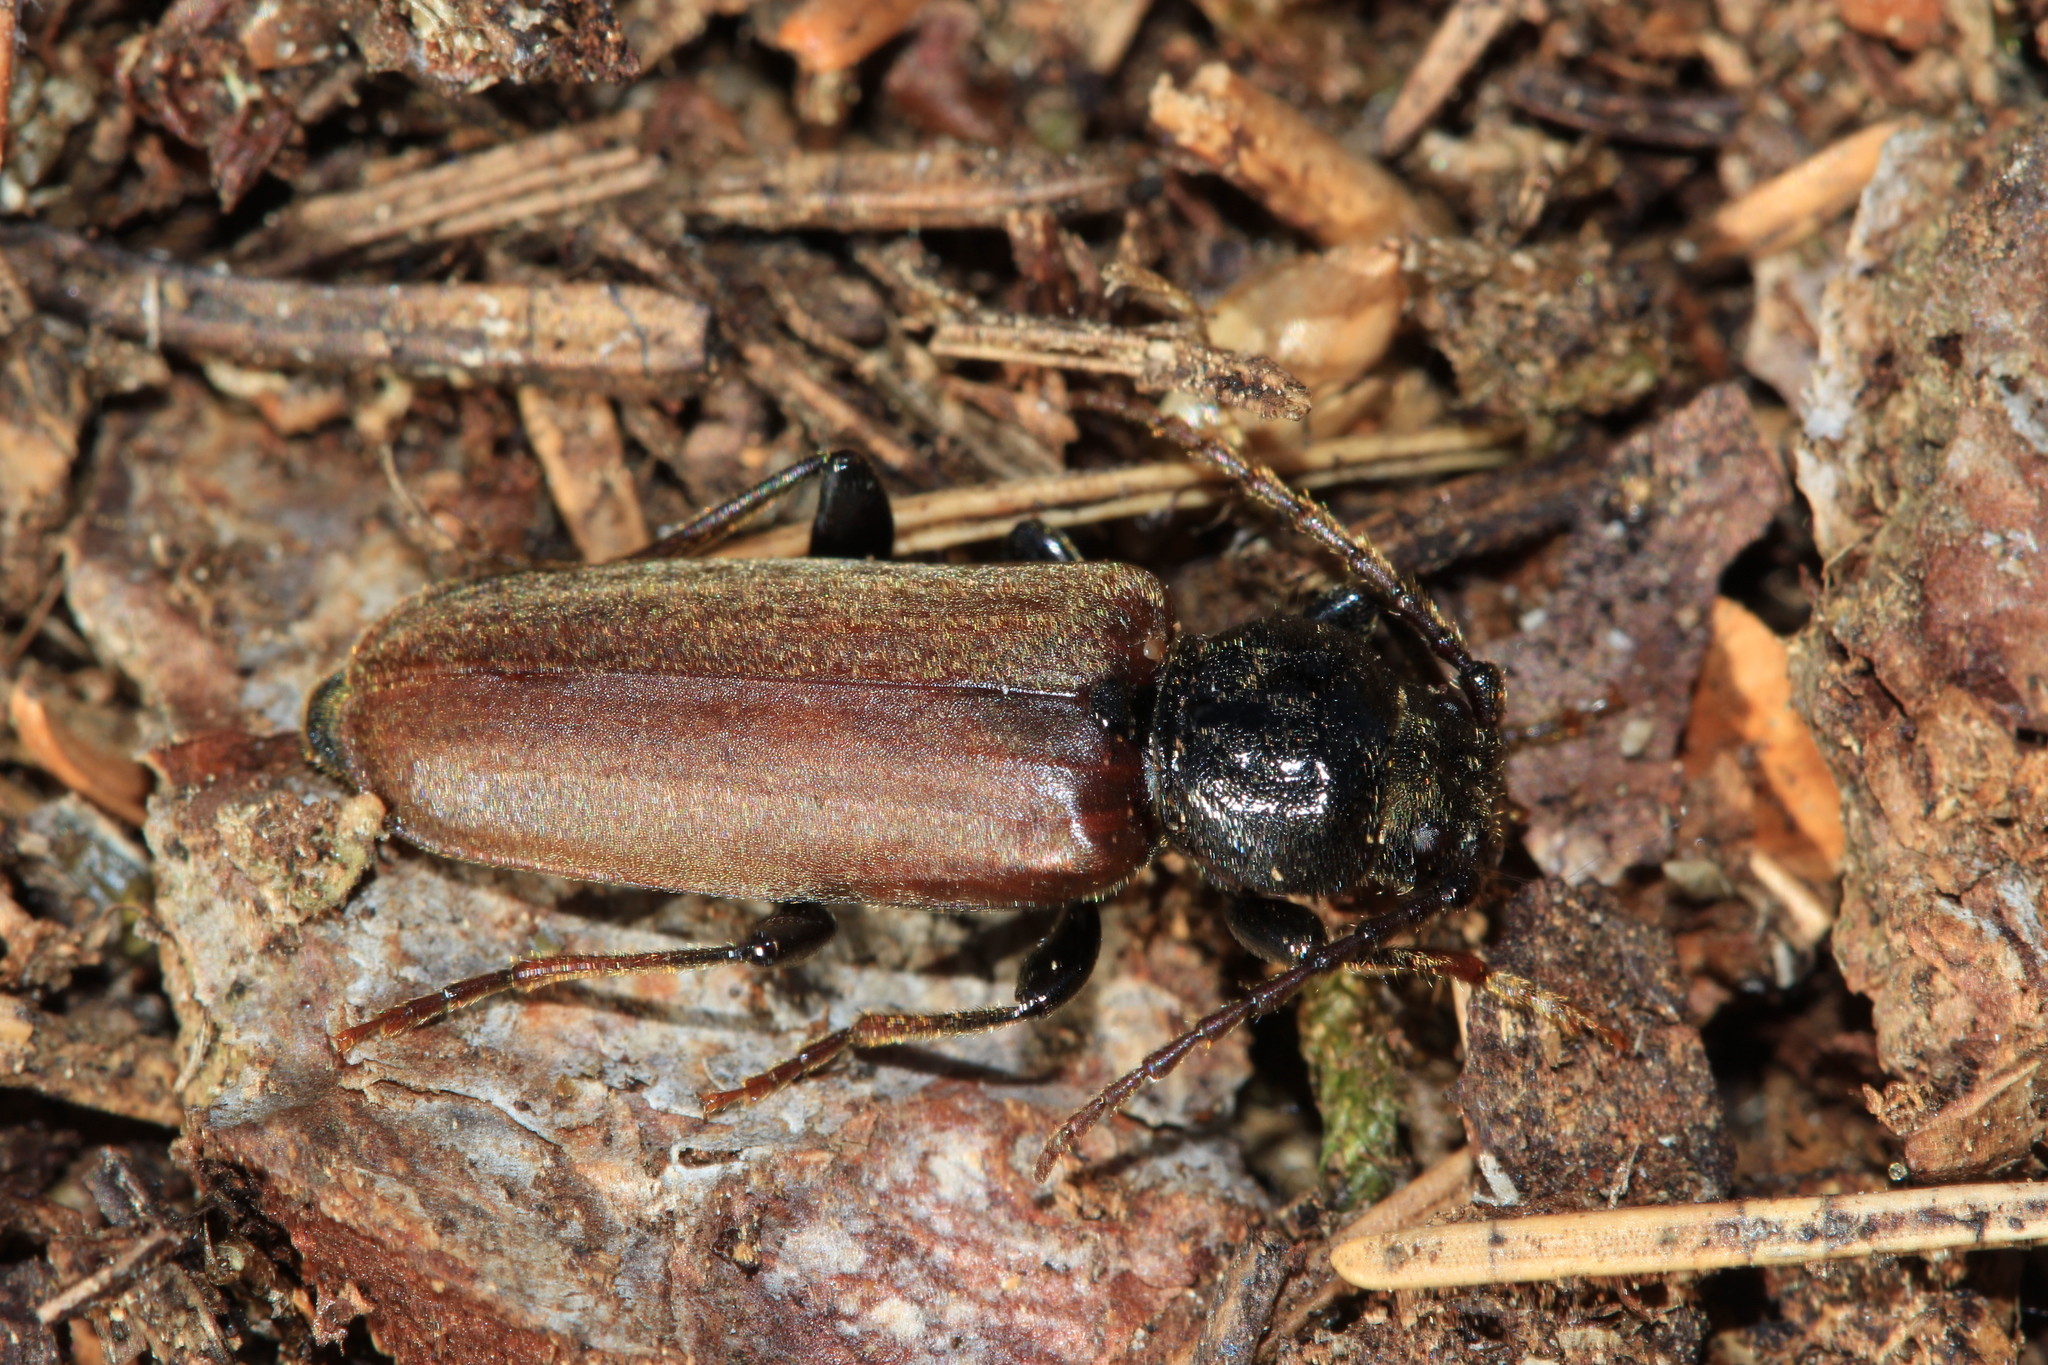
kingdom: Animalia
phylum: Arthropoda
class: Insecta
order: Coleoptera
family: Cerambycidae
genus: Tetropium
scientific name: Tetropium castaneum
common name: Long-horned beetle
